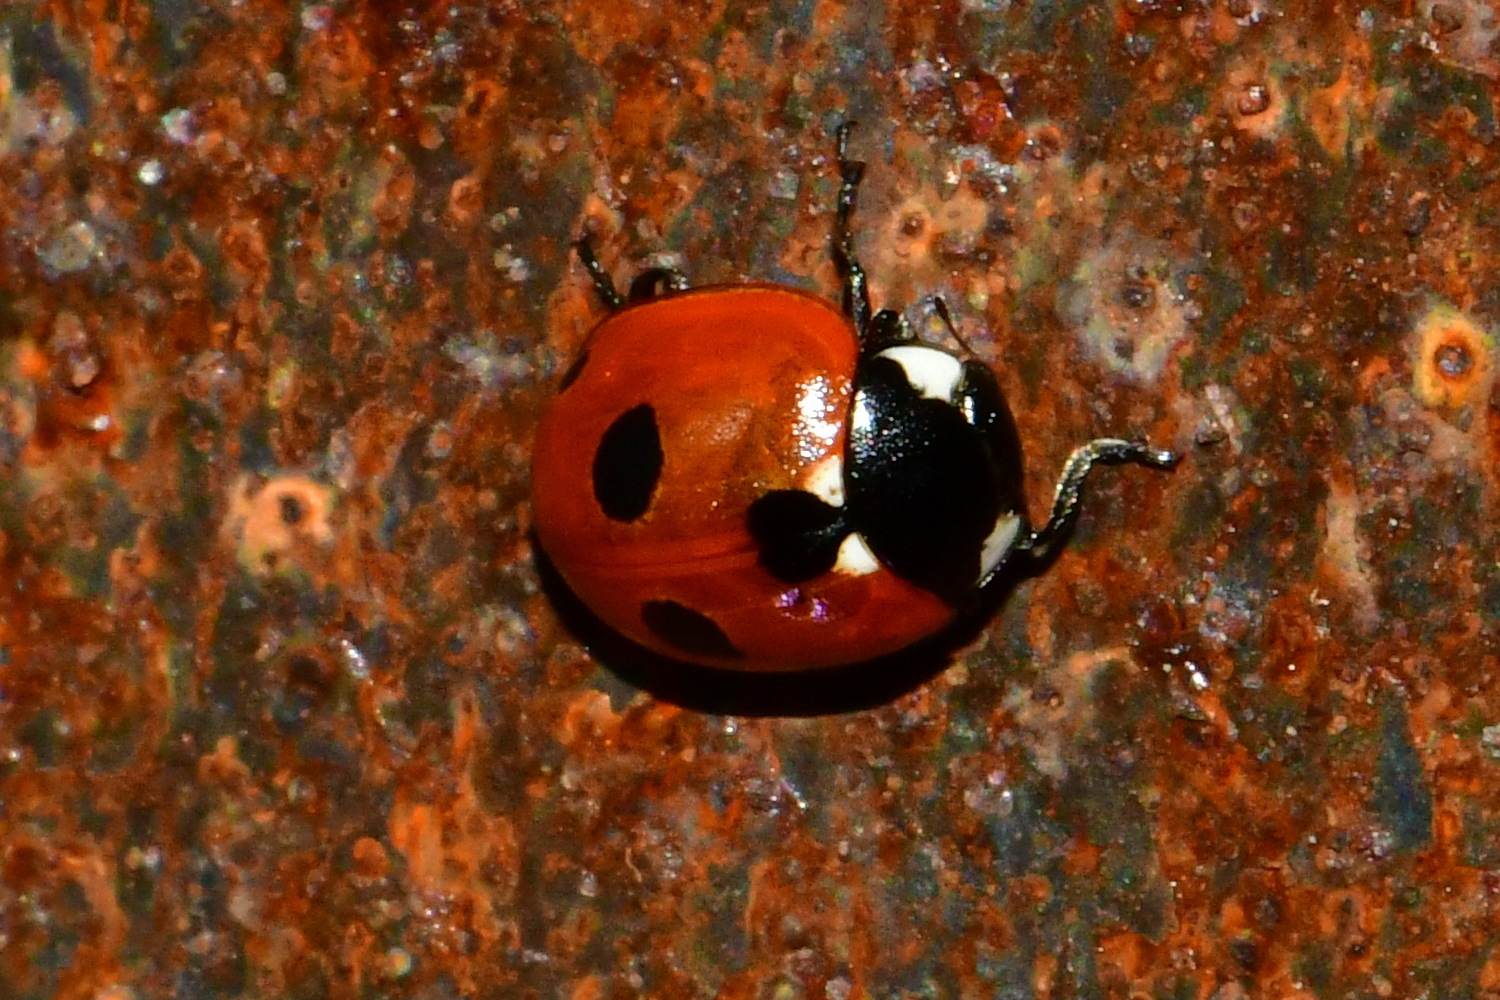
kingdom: Animalia
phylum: Arthropoda
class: Insecta
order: Coleoptera
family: Coccinellidae
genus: Coccinella
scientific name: Coccinella quinquepunctata
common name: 5-spot ladybird
